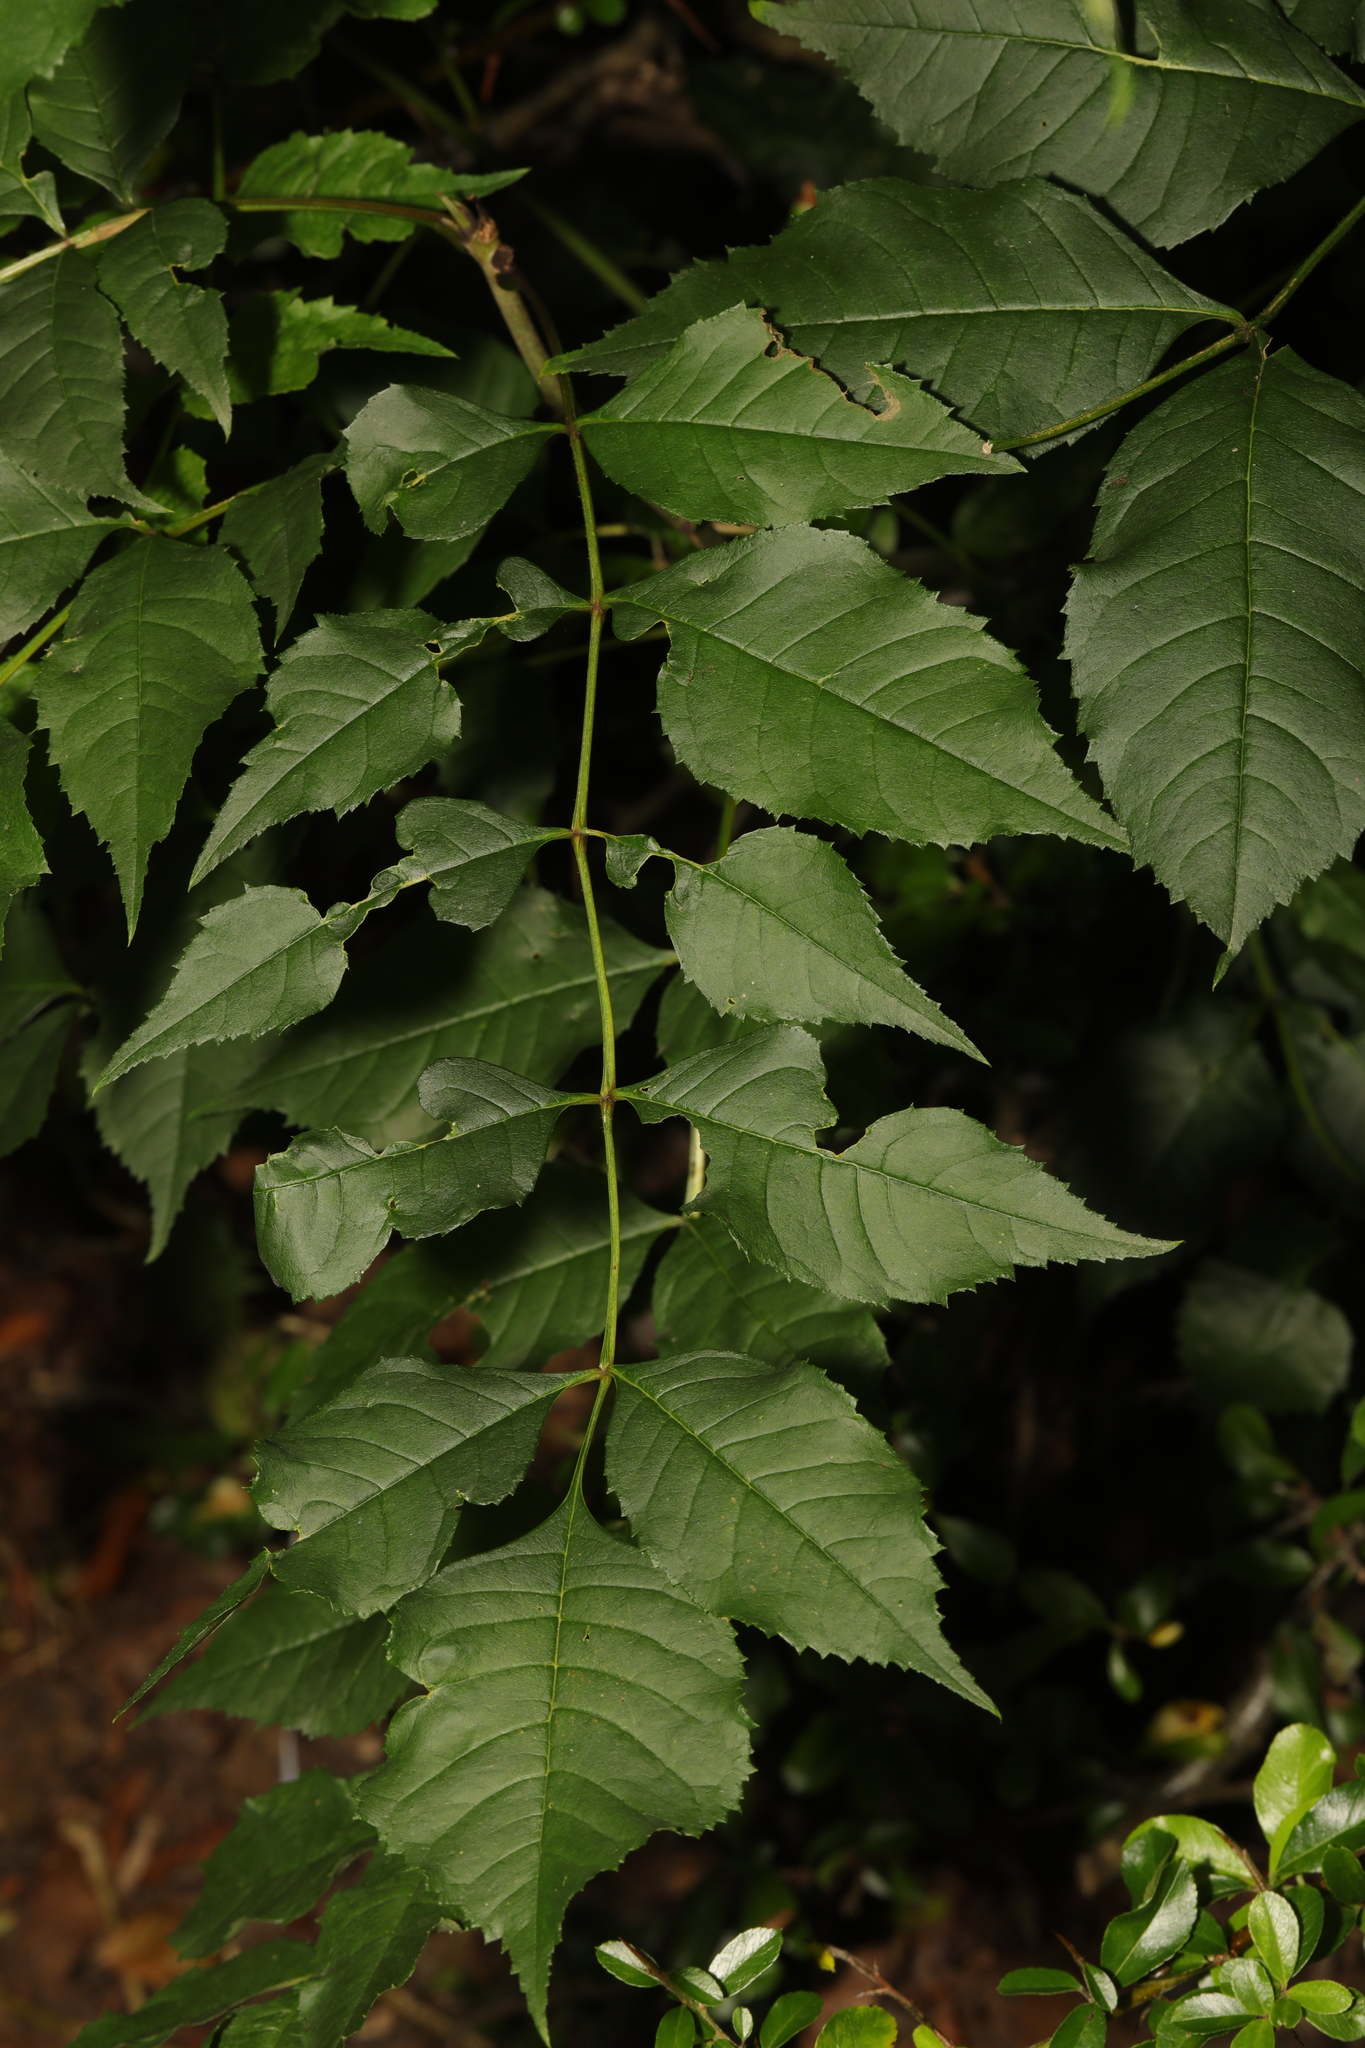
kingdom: Plantae
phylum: Tracheophyta
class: Magnoliopsida
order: Lamiales
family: Oleaceae
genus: Fraxinus
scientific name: Fraxinus excelsior
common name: European ash
